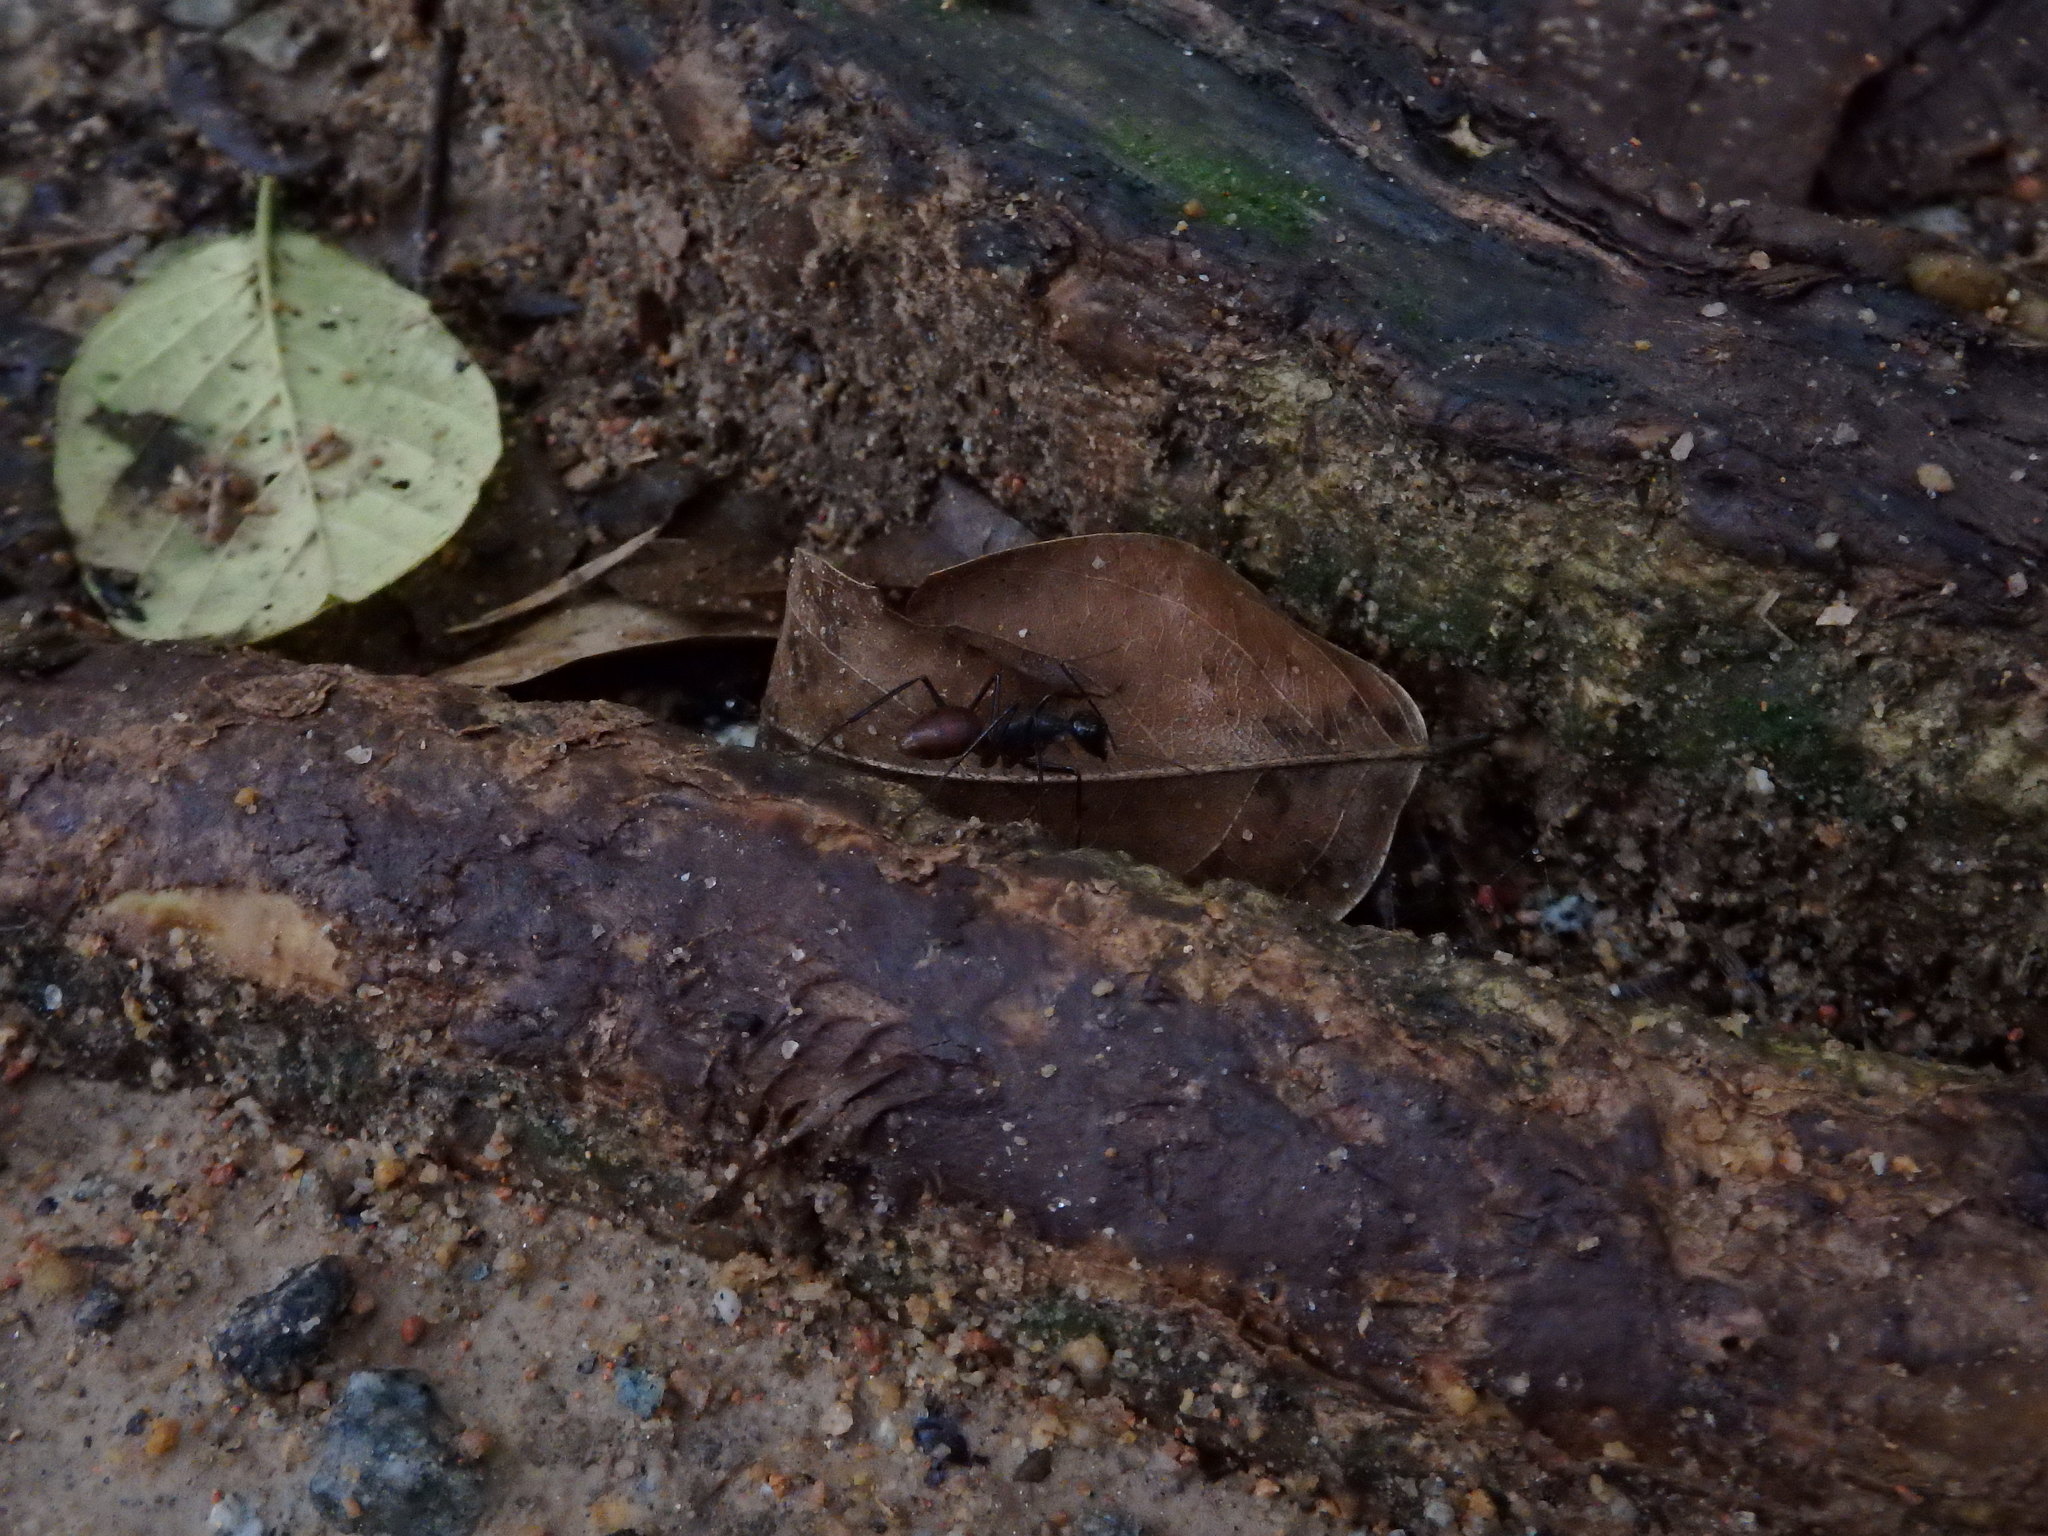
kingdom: Animalia
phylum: Arthropoda
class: Insecta
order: Hymenoptera
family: Formicidae
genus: Dinomyrmex
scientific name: Dinomyrmex
